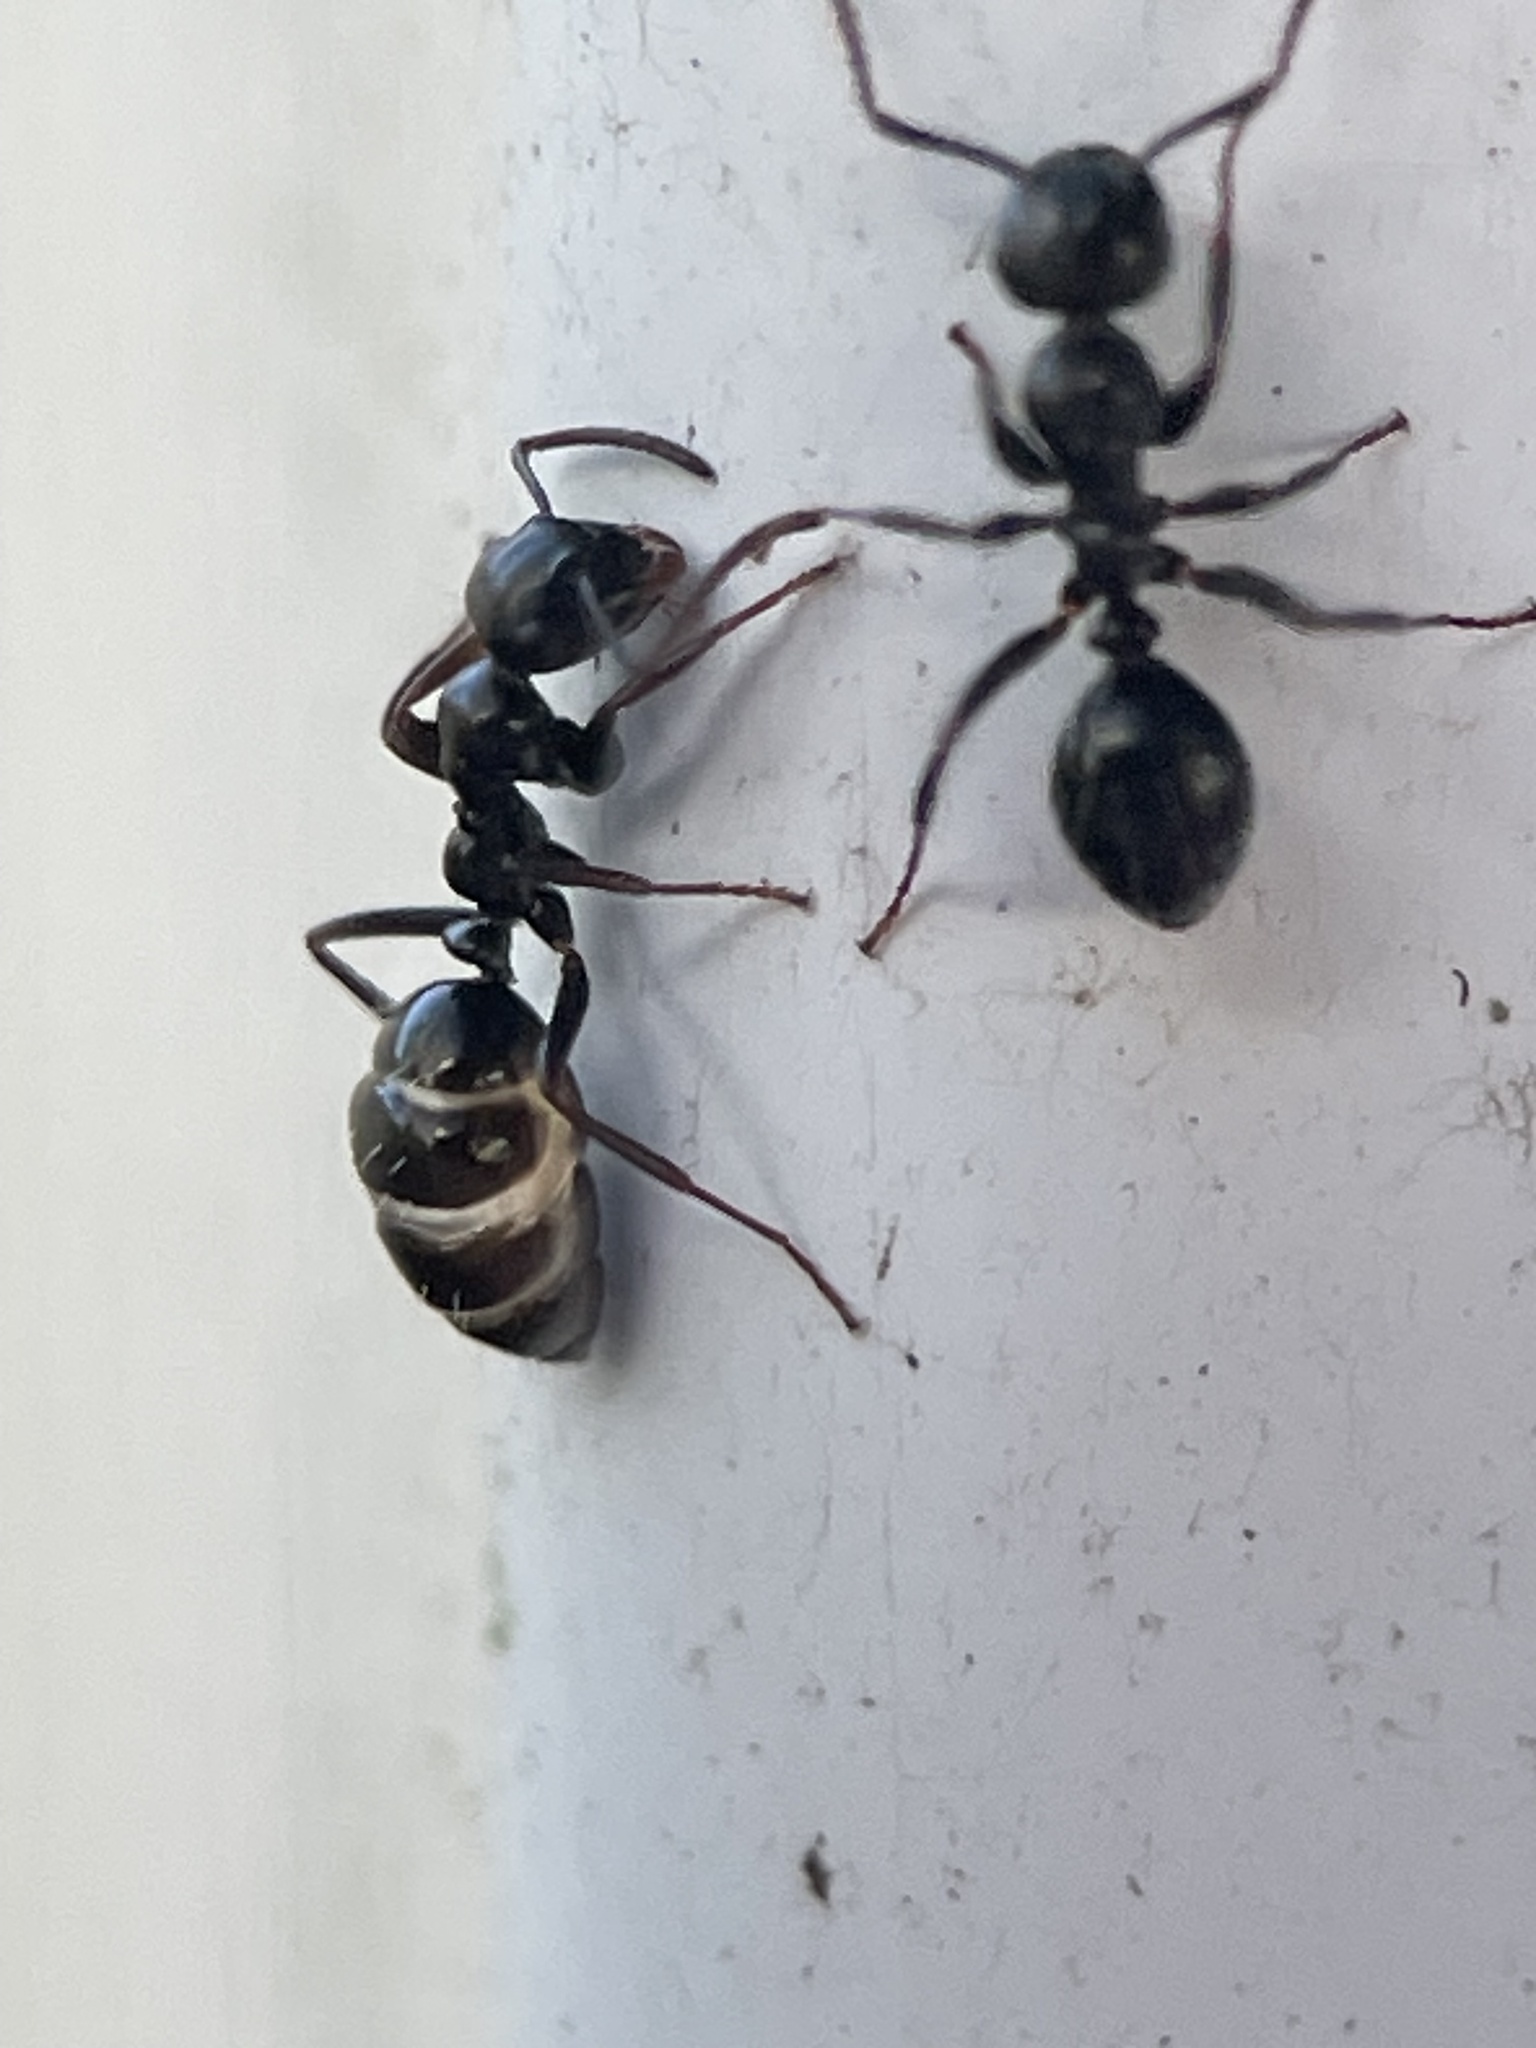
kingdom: Animalia
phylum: Arthropoda
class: Insecta
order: Hymenoptera
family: Formicidae
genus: Colobopsis
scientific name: Colobopsis gasseri
